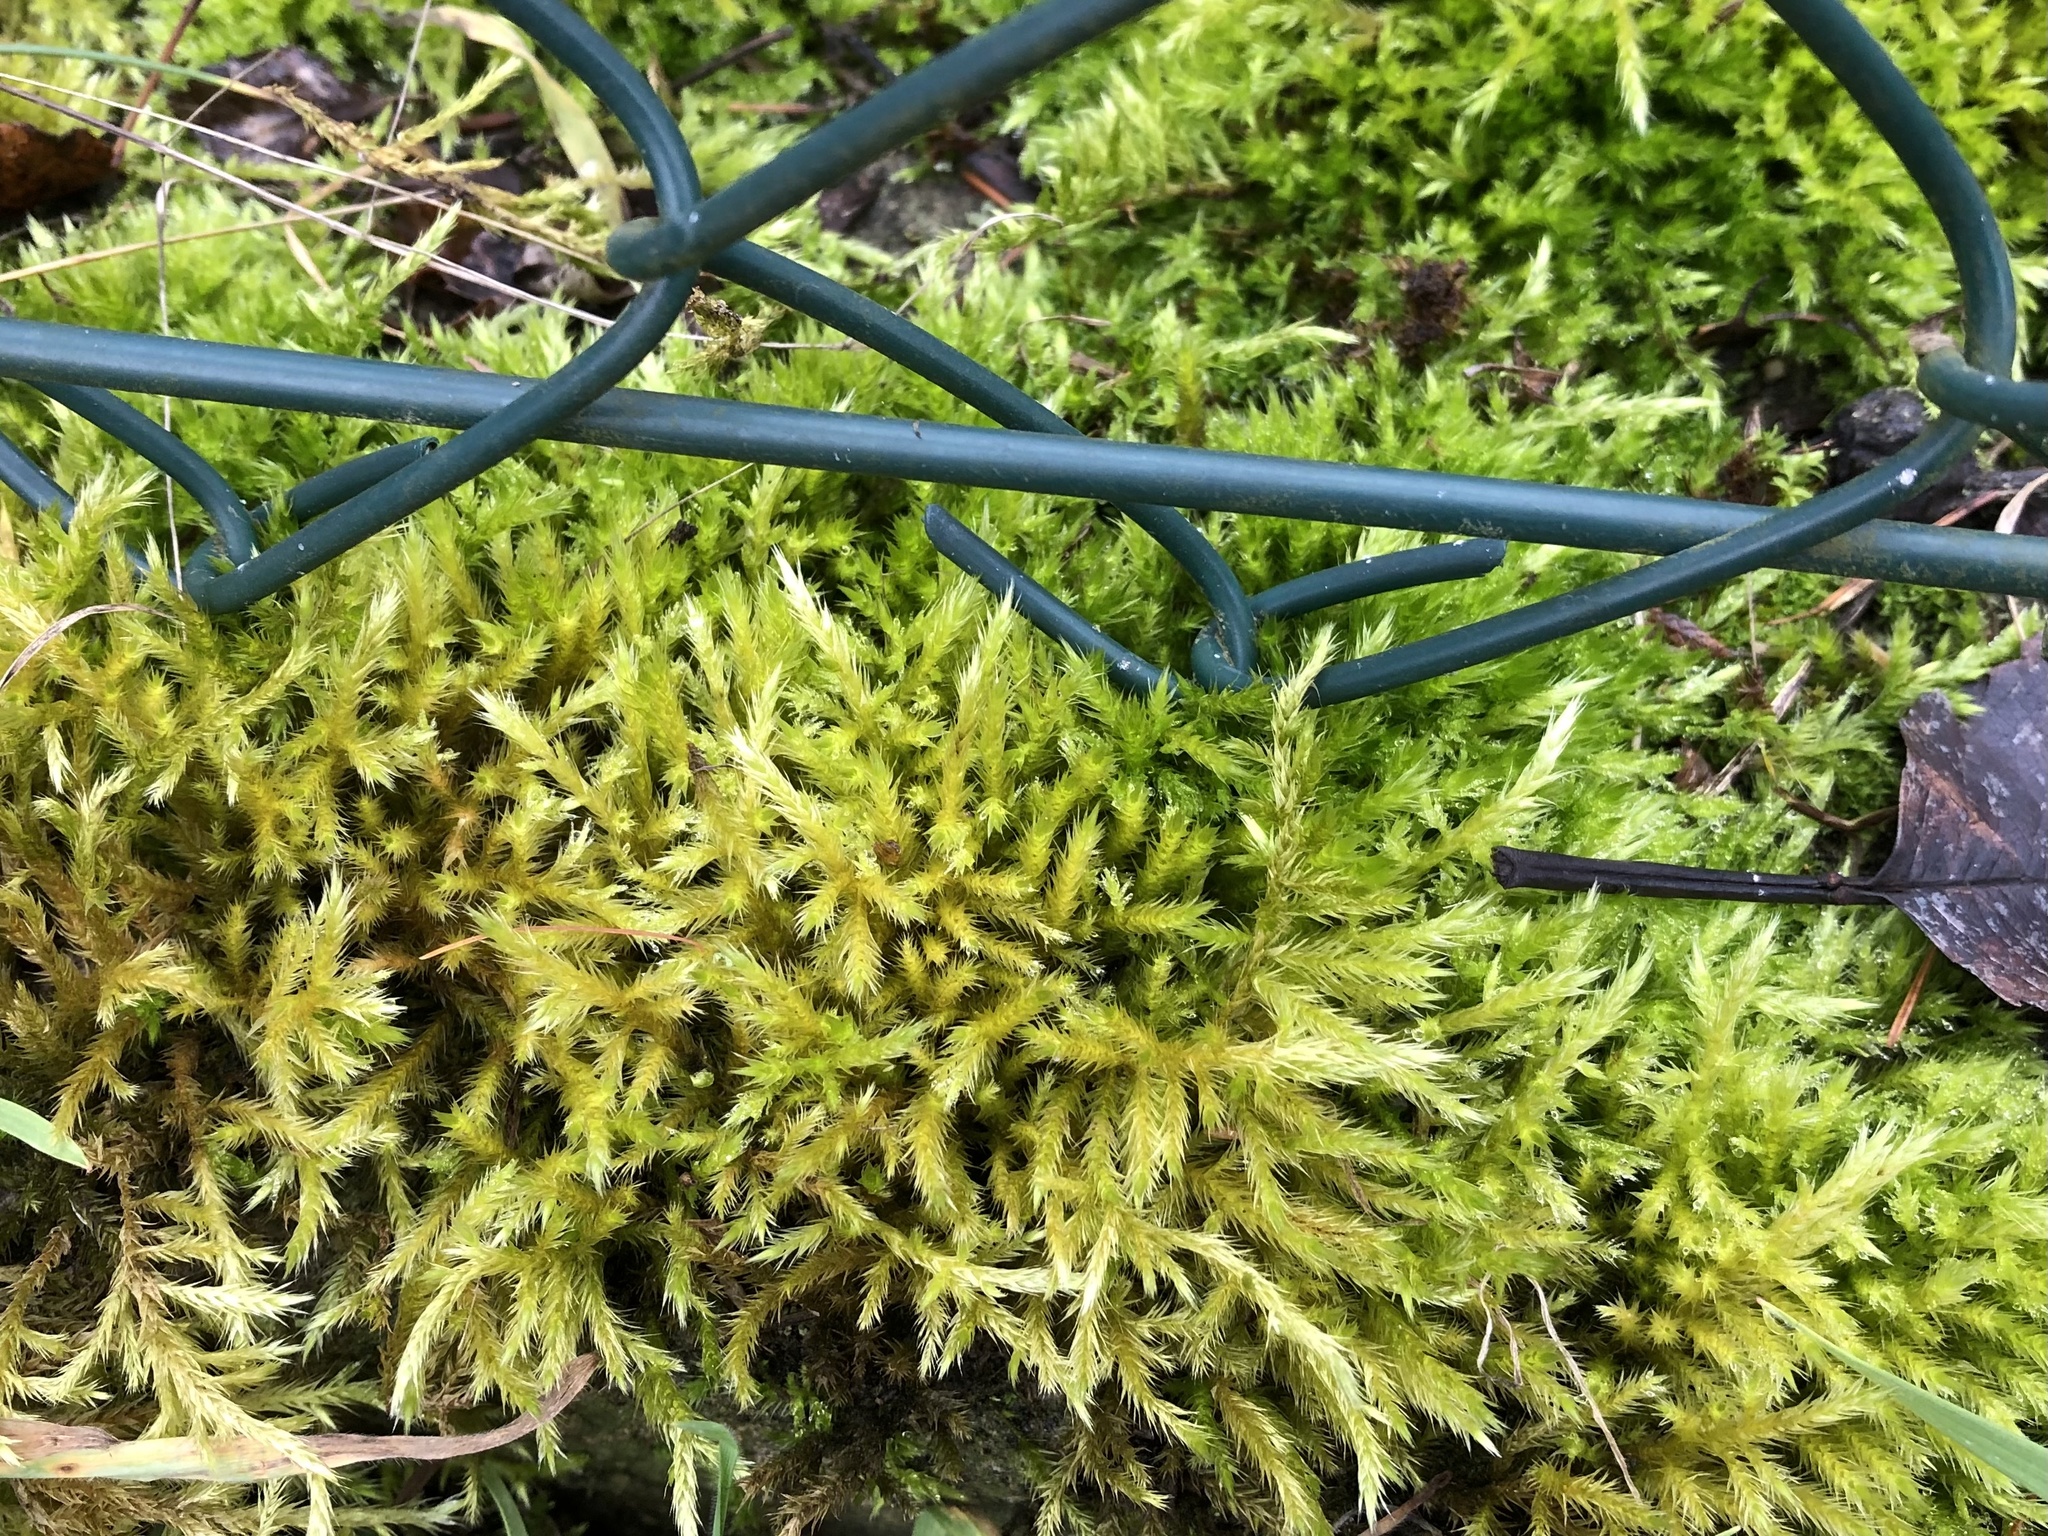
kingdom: Plantae
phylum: Bryophyta
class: Bryopsida
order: Hypnales
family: Brachytheciaceae
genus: Homalothecium
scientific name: Homalothecium lutescens
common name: Yellow feather-moss
